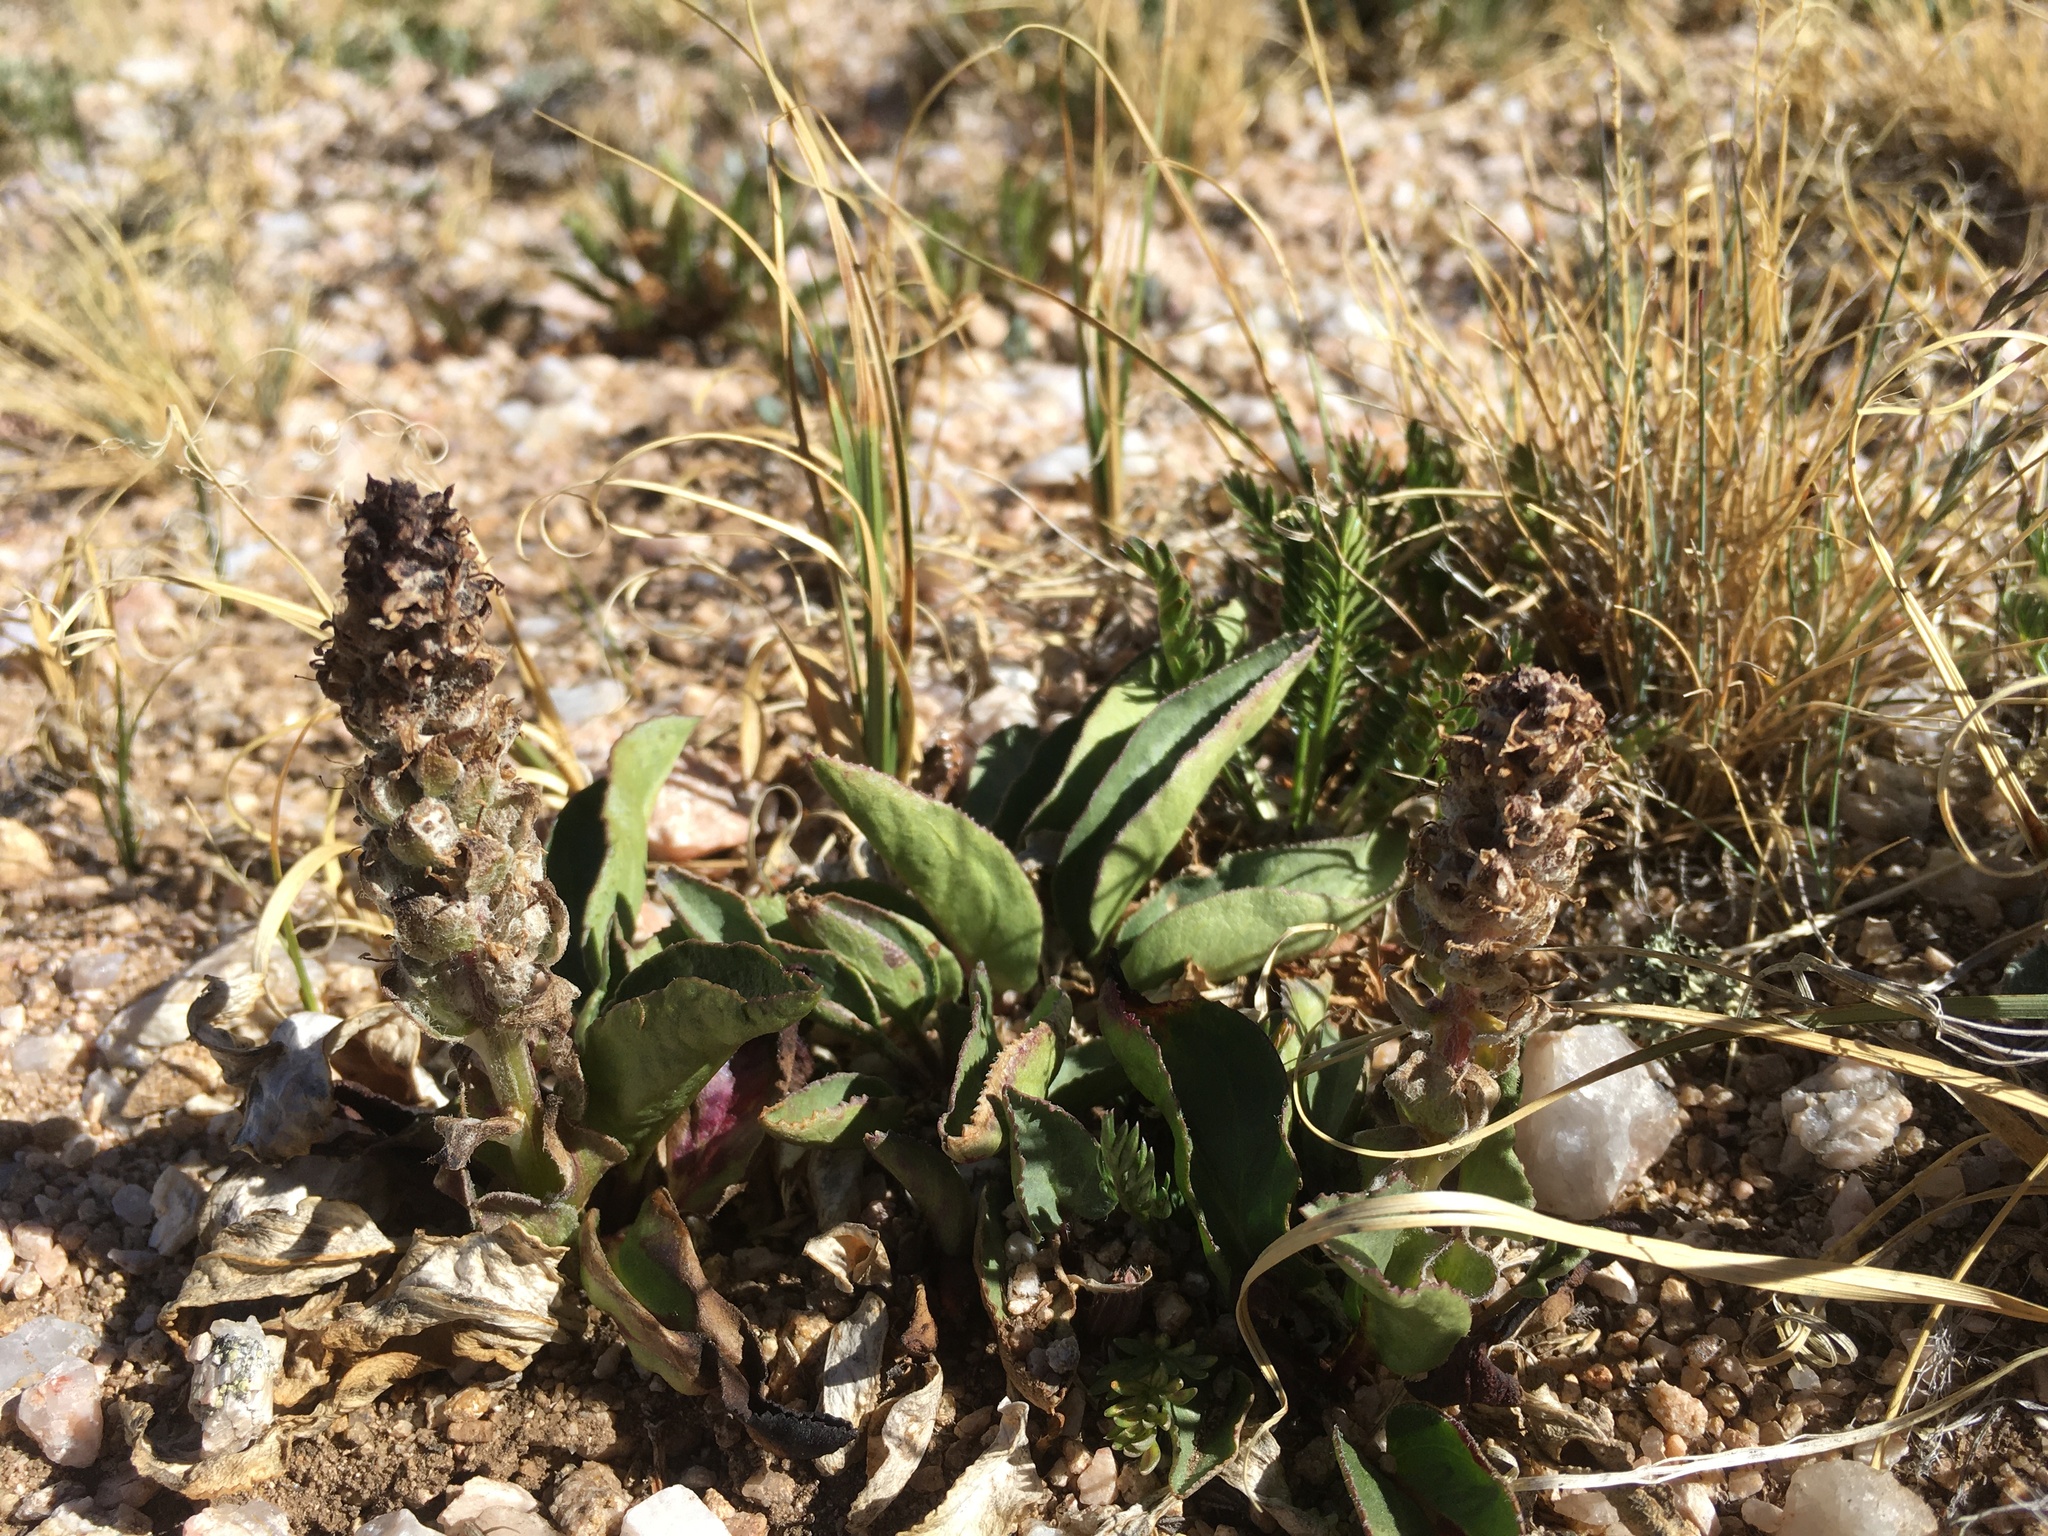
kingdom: Plantae
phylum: Tracheophyta
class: Magnoliopsida
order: Lamiales
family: Plantaginaceae
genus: Synthyris
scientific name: Synthyris alpina
